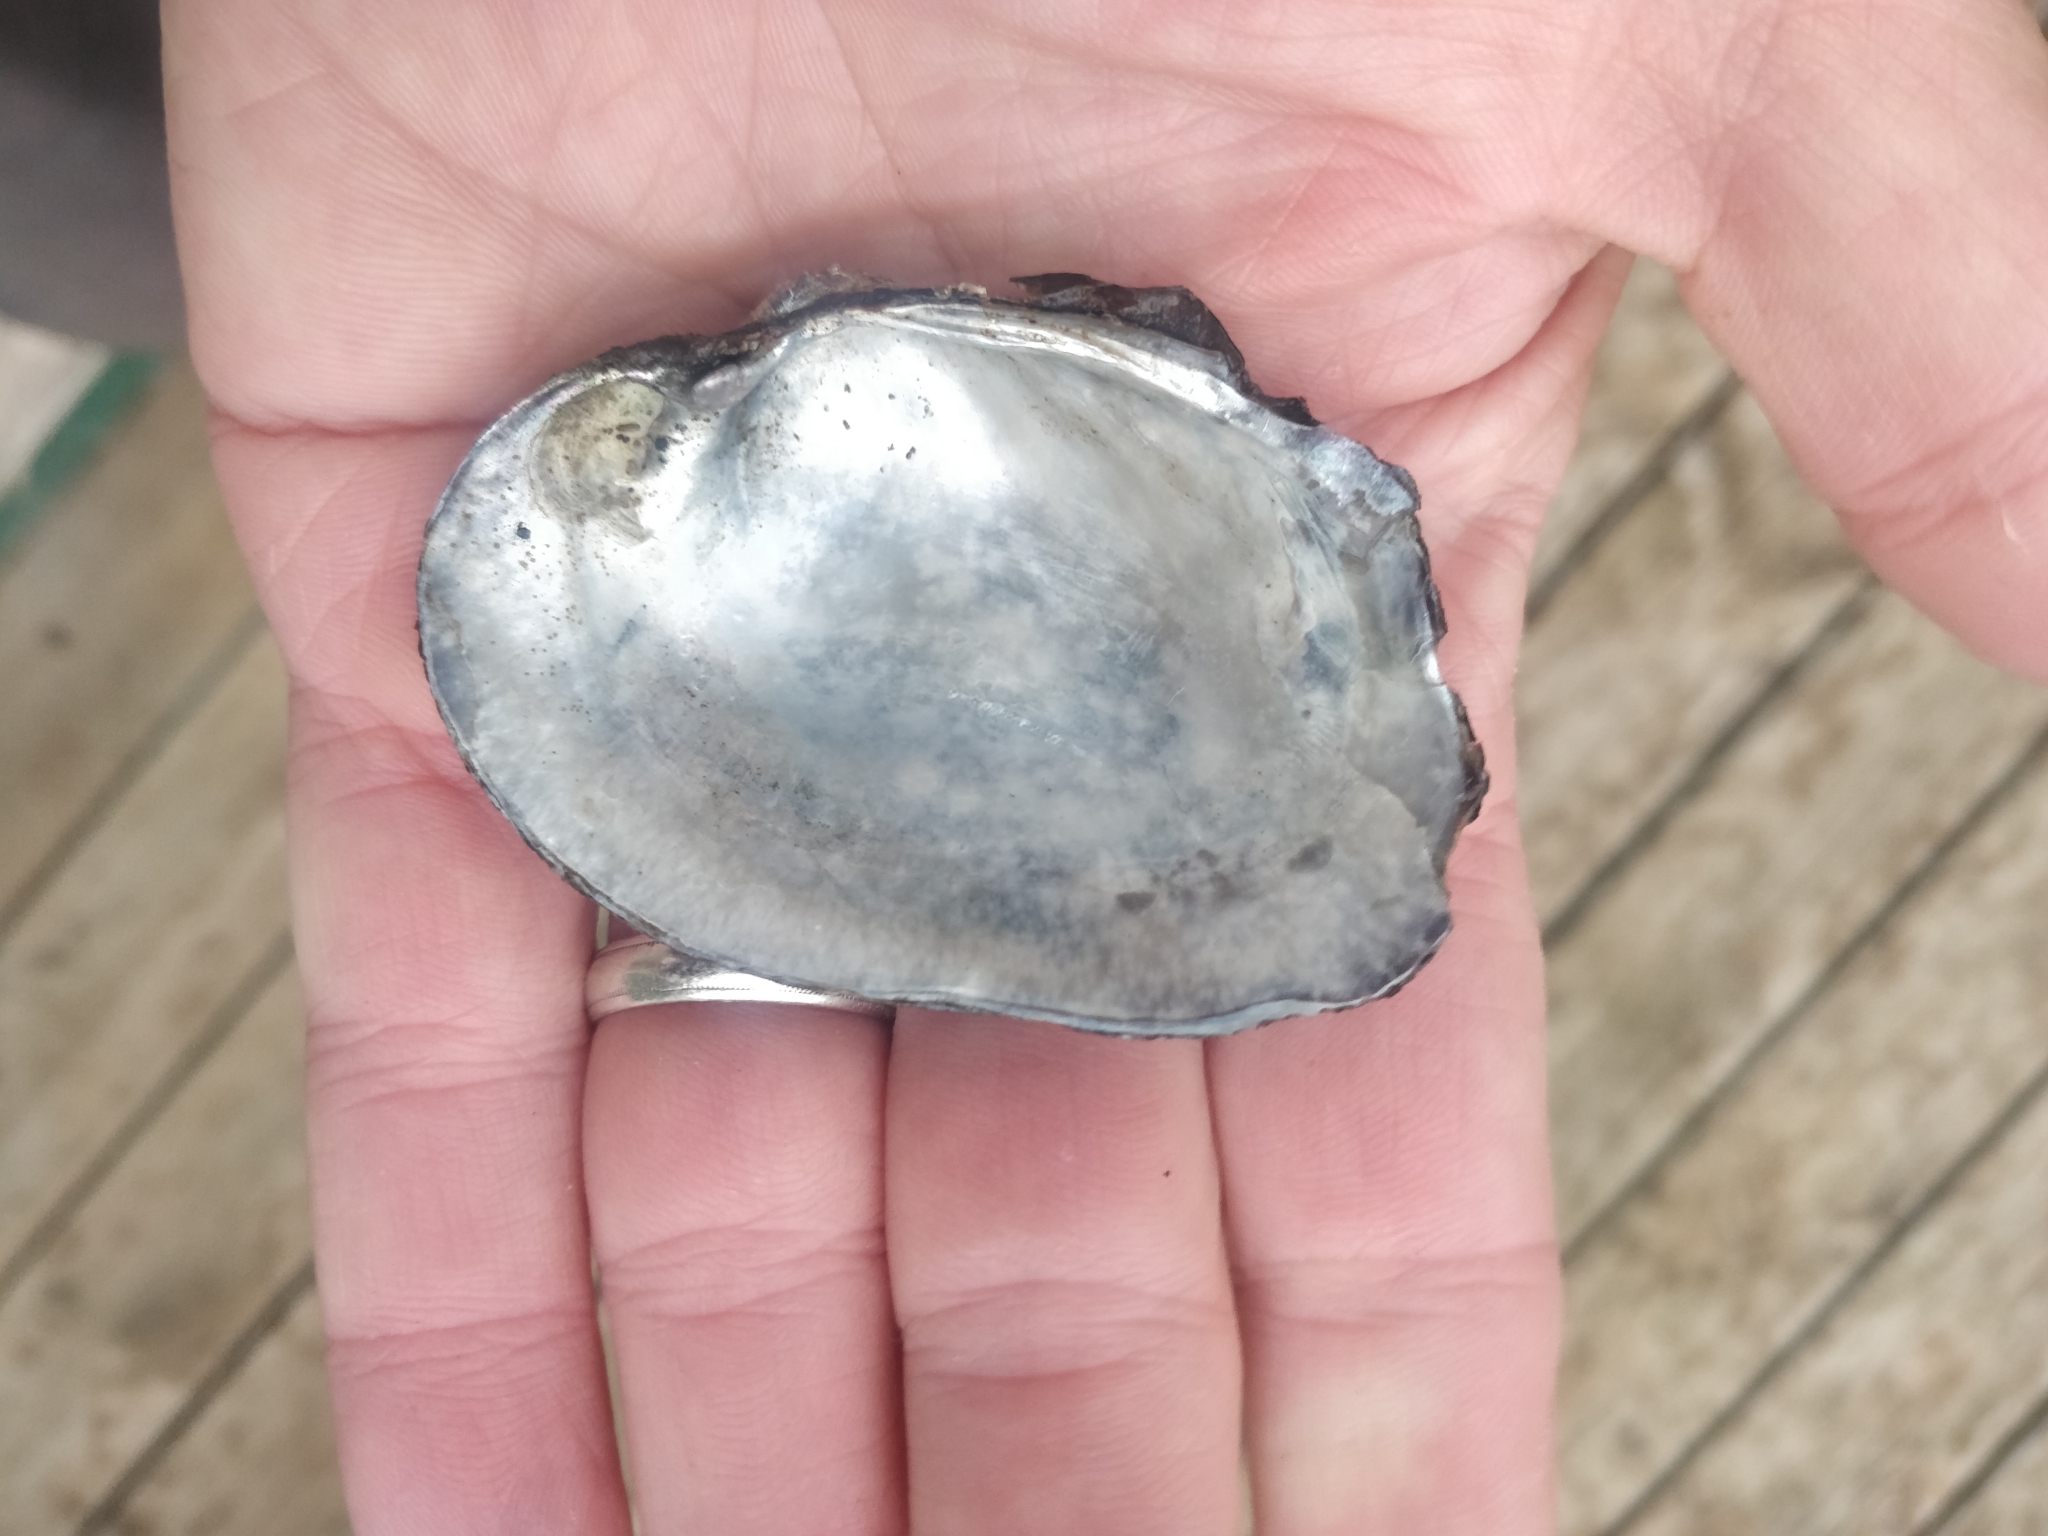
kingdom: Animalia
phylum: Mollusca
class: Bivalvia
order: Unionida
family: Unionidae
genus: Arcidens
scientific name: Arcidens confragosus
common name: Rock pocketbook
